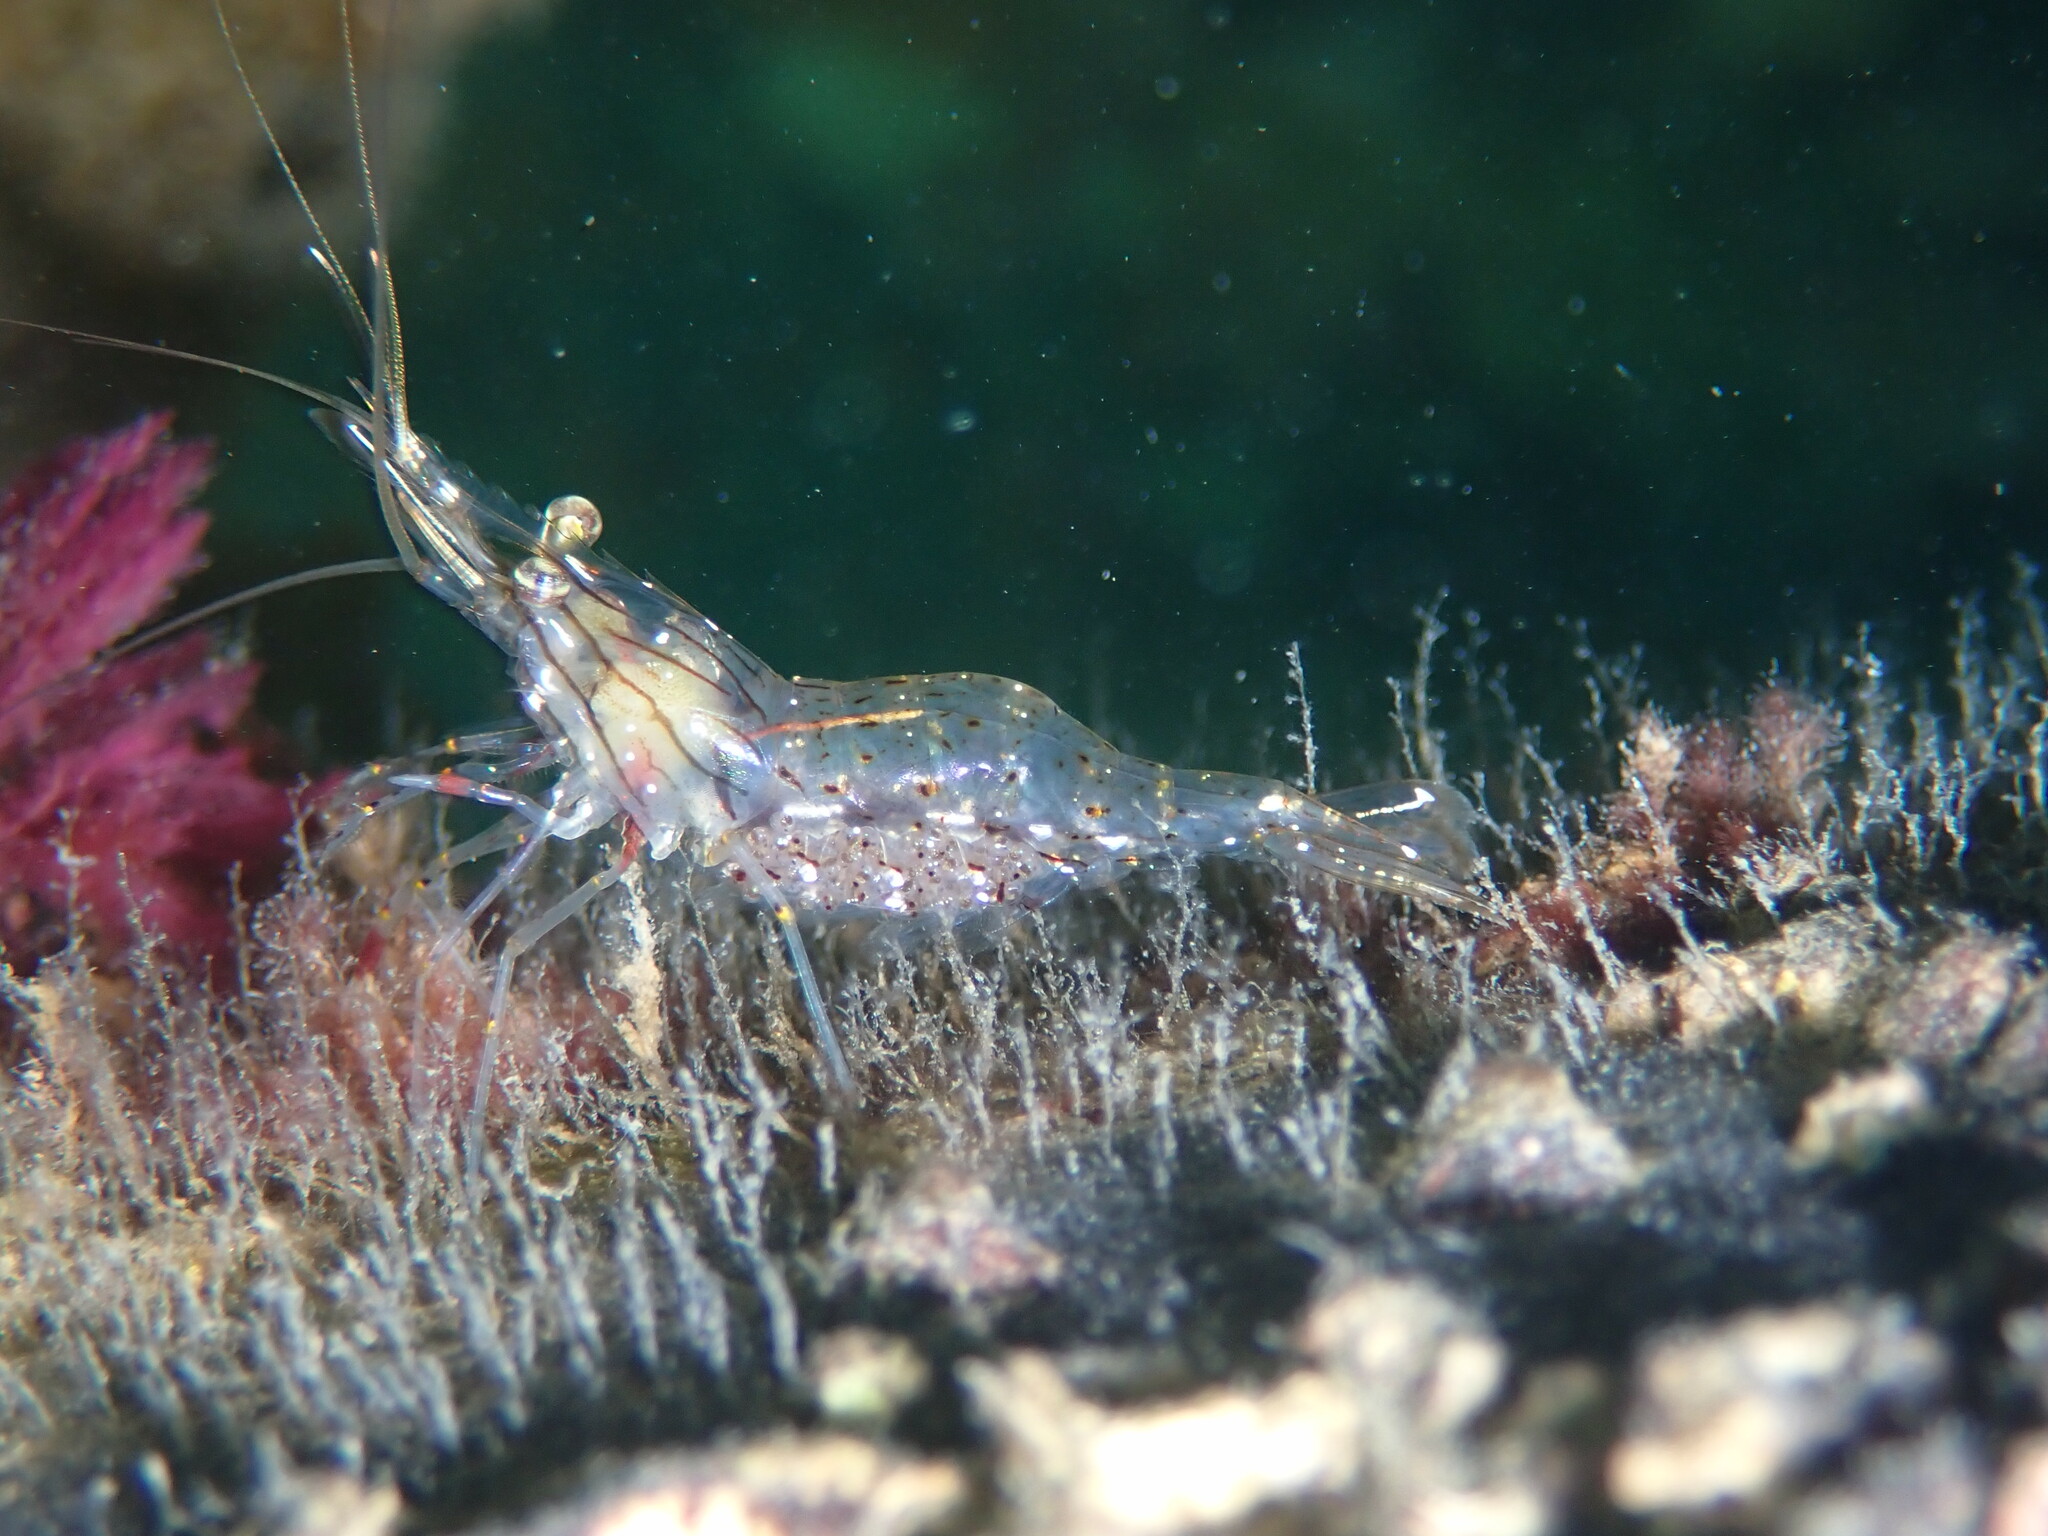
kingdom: Animalia
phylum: Arthropoda
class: Malacostraca
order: Decapoda
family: Palaemonidae
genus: Palaemon
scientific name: Palaemon serenus
